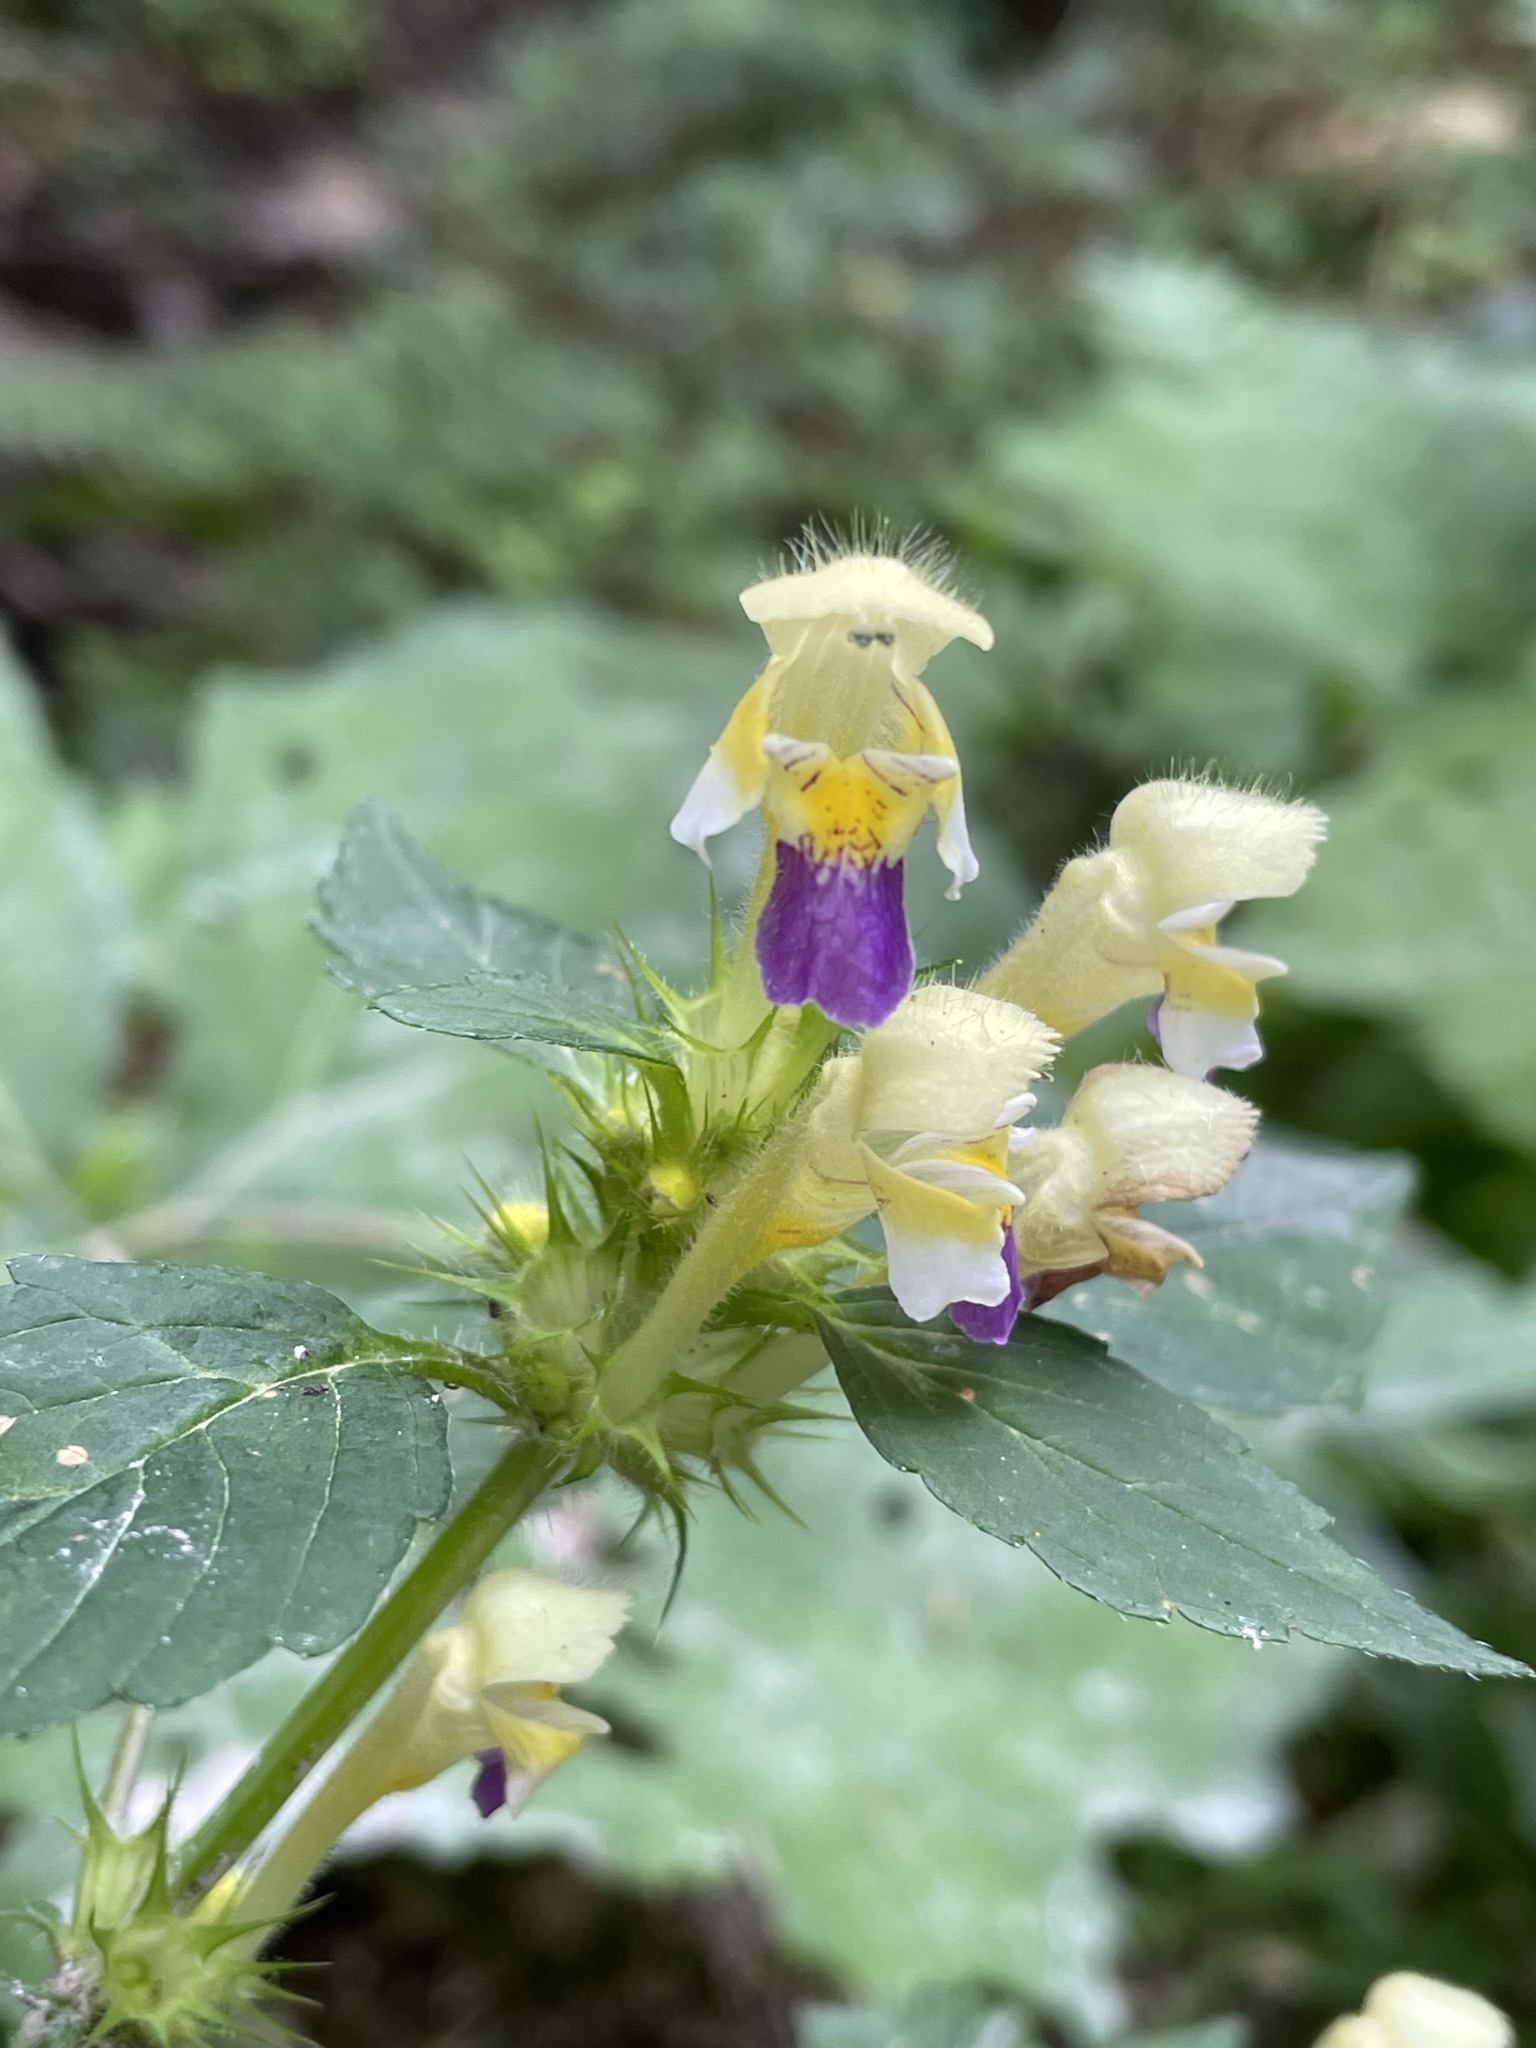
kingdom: Plantae
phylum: Tracheophyta
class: Magnoliopsida
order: Lamiales
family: Lamiaceae
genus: Galeopsis
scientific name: Galeopsis speciosa
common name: Large-flowered hemp-nettle
